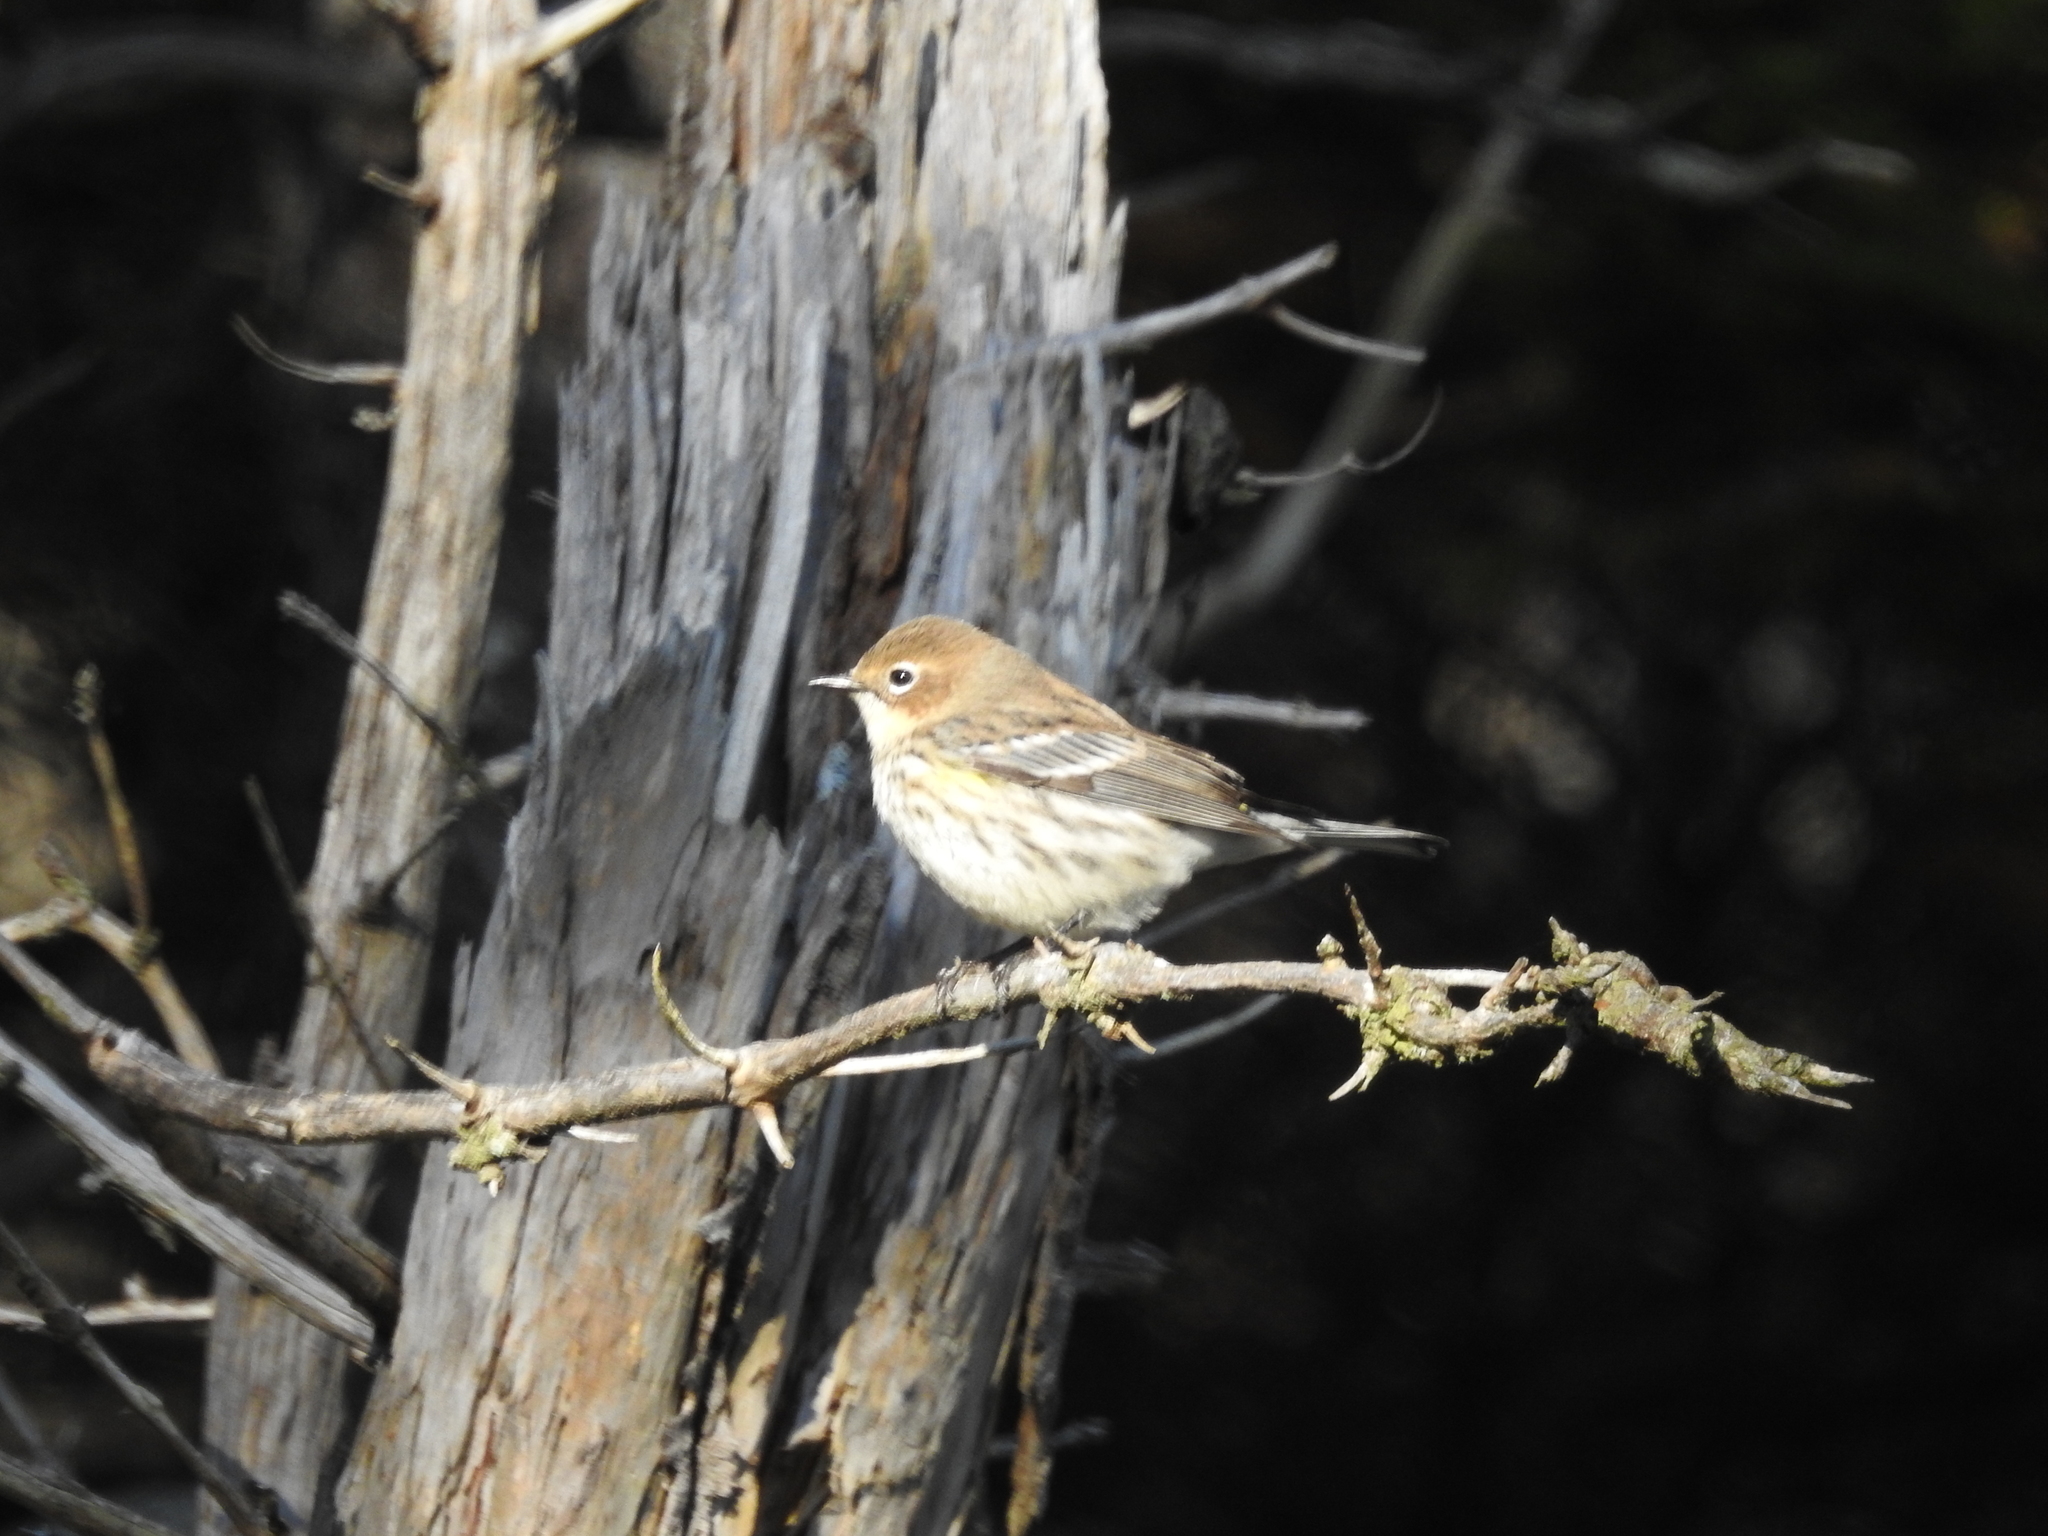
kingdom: Animalia
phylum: Chordata
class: Aves
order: Passeriformes
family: Parulidae
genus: Setophaga
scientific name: Setophaga coronata
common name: Myrtle warbler
